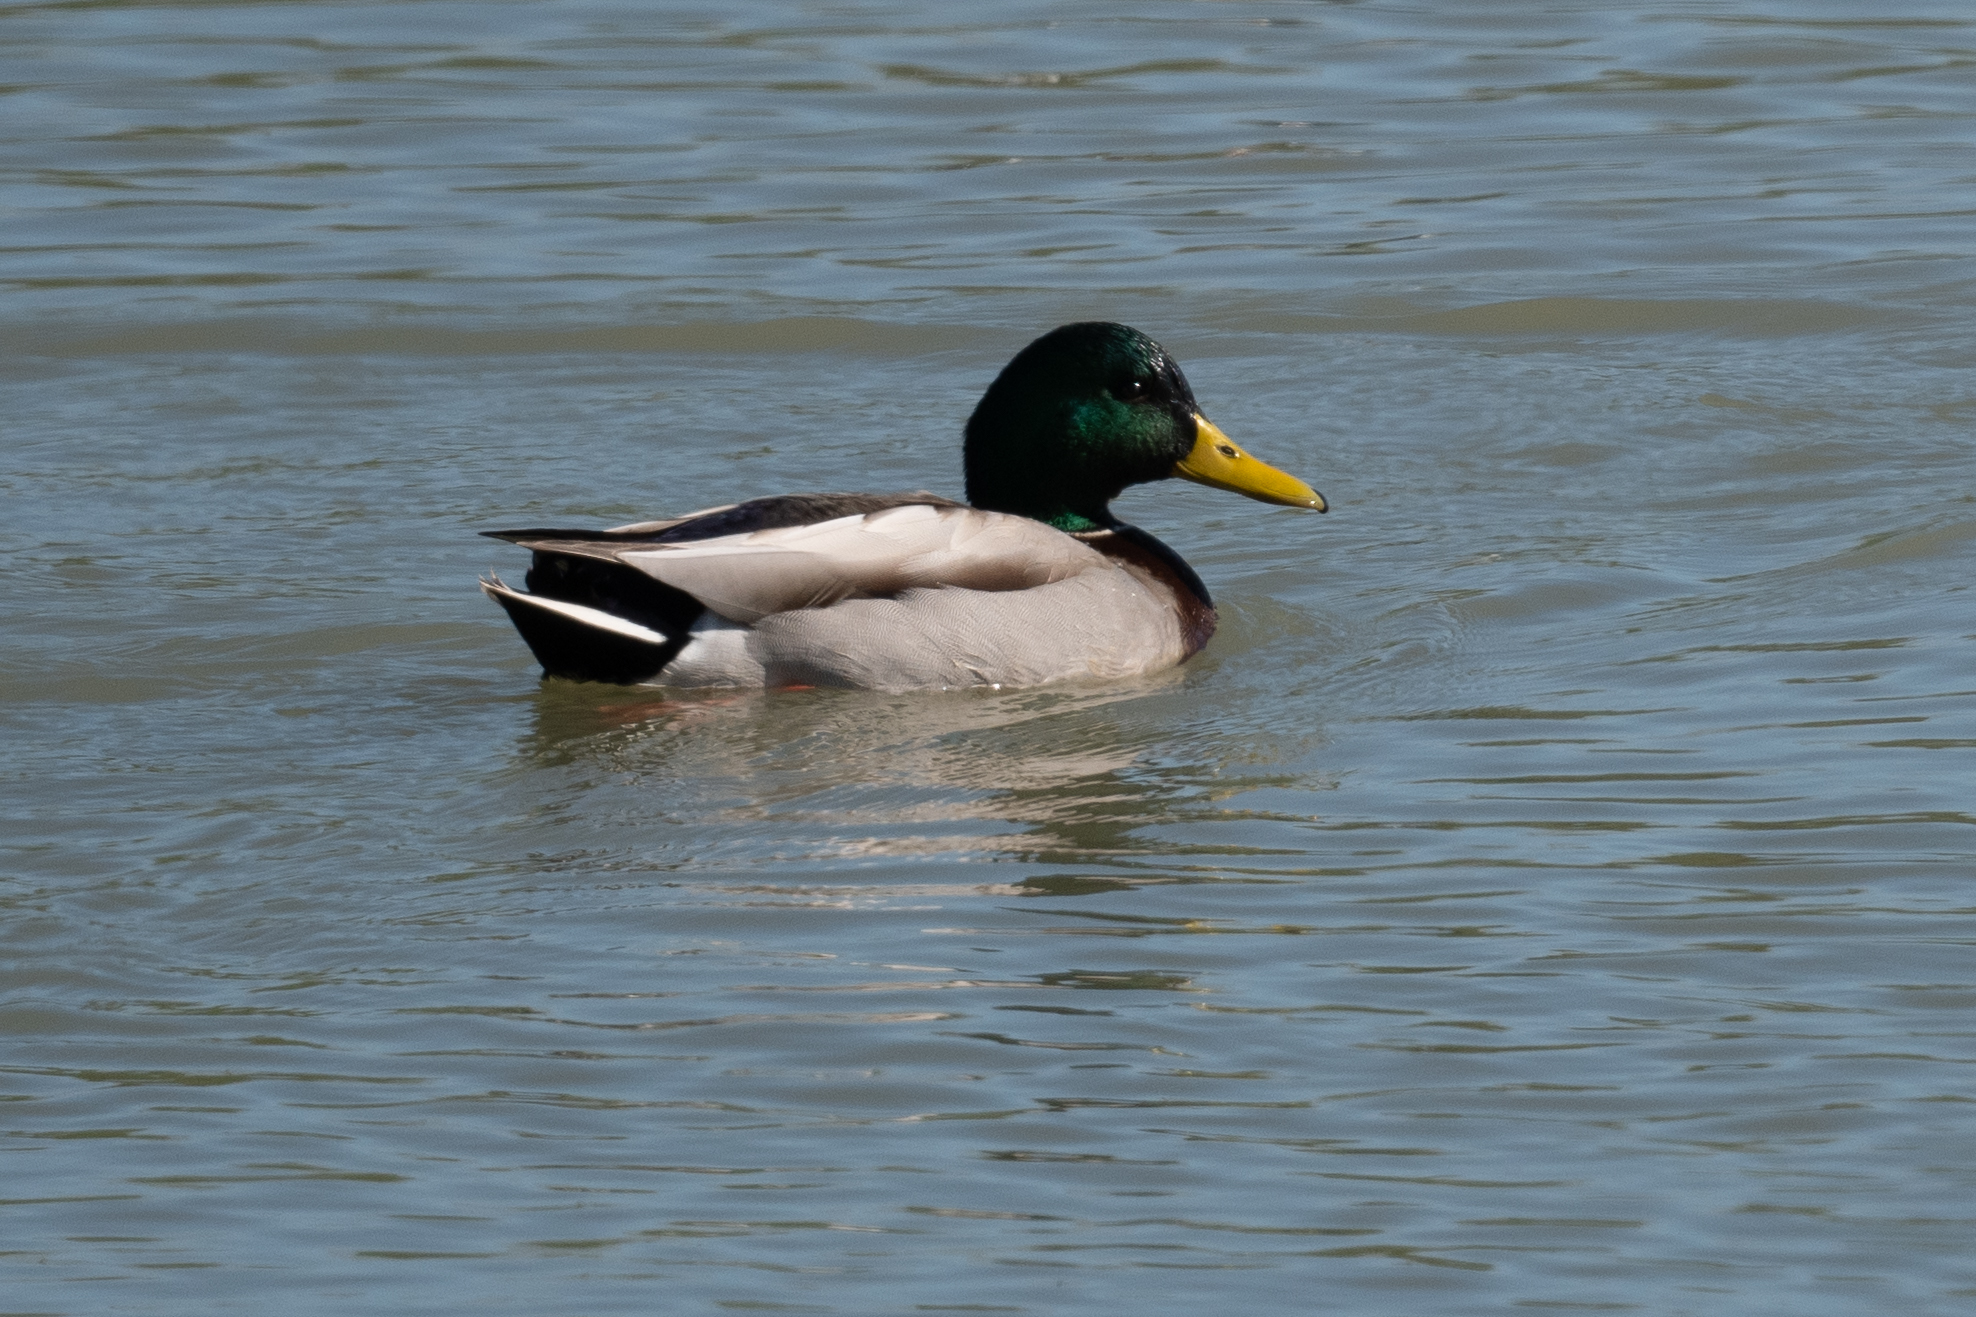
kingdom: Animalia
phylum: Chordata
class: Aves
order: Anseriformes
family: Anatidae
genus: Anas
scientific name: Anas platyrhynchos
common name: Mallard
